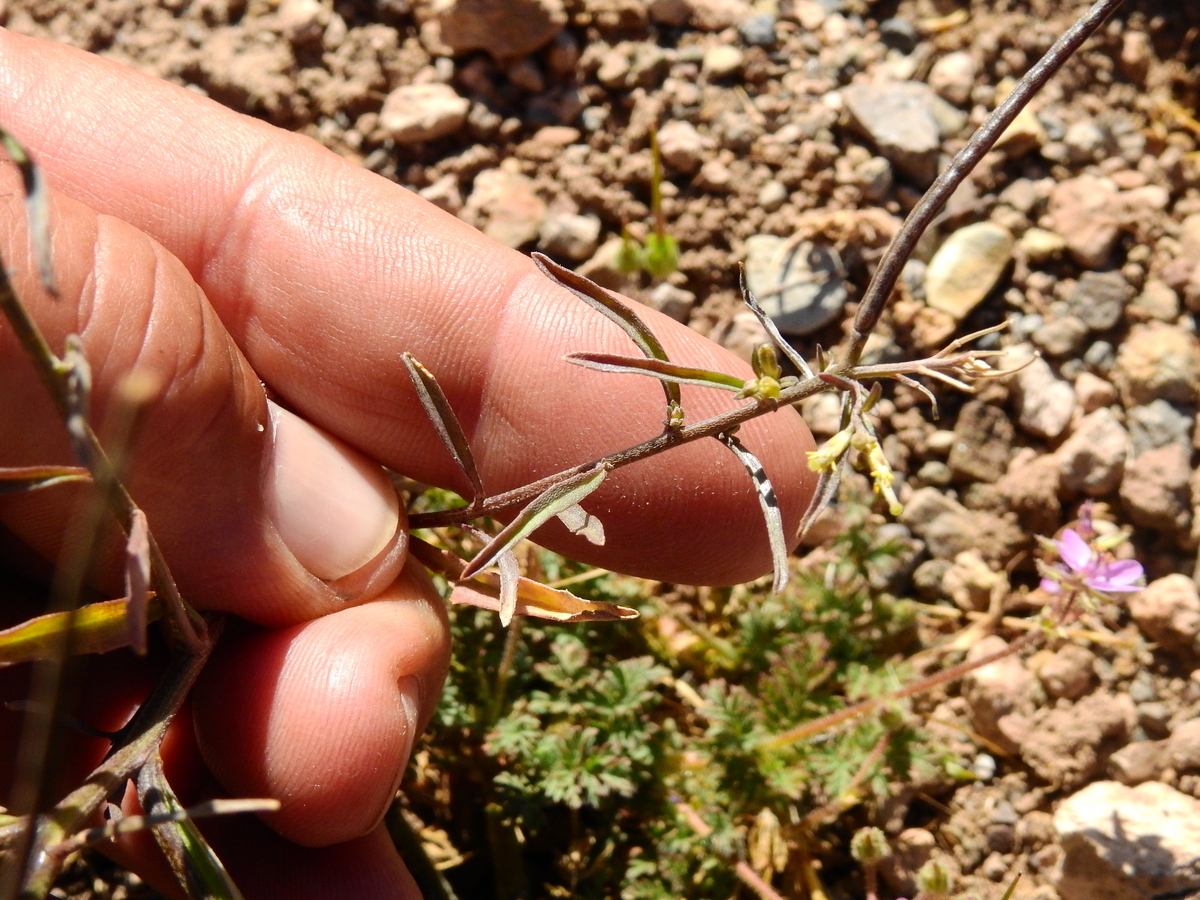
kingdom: Plantae
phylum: Tracheophyta
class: Magnoliopsida
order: Brassicales
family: Brassicaceae
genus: Mostacillastrum
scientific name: Mostacillastrum orbignyanum
